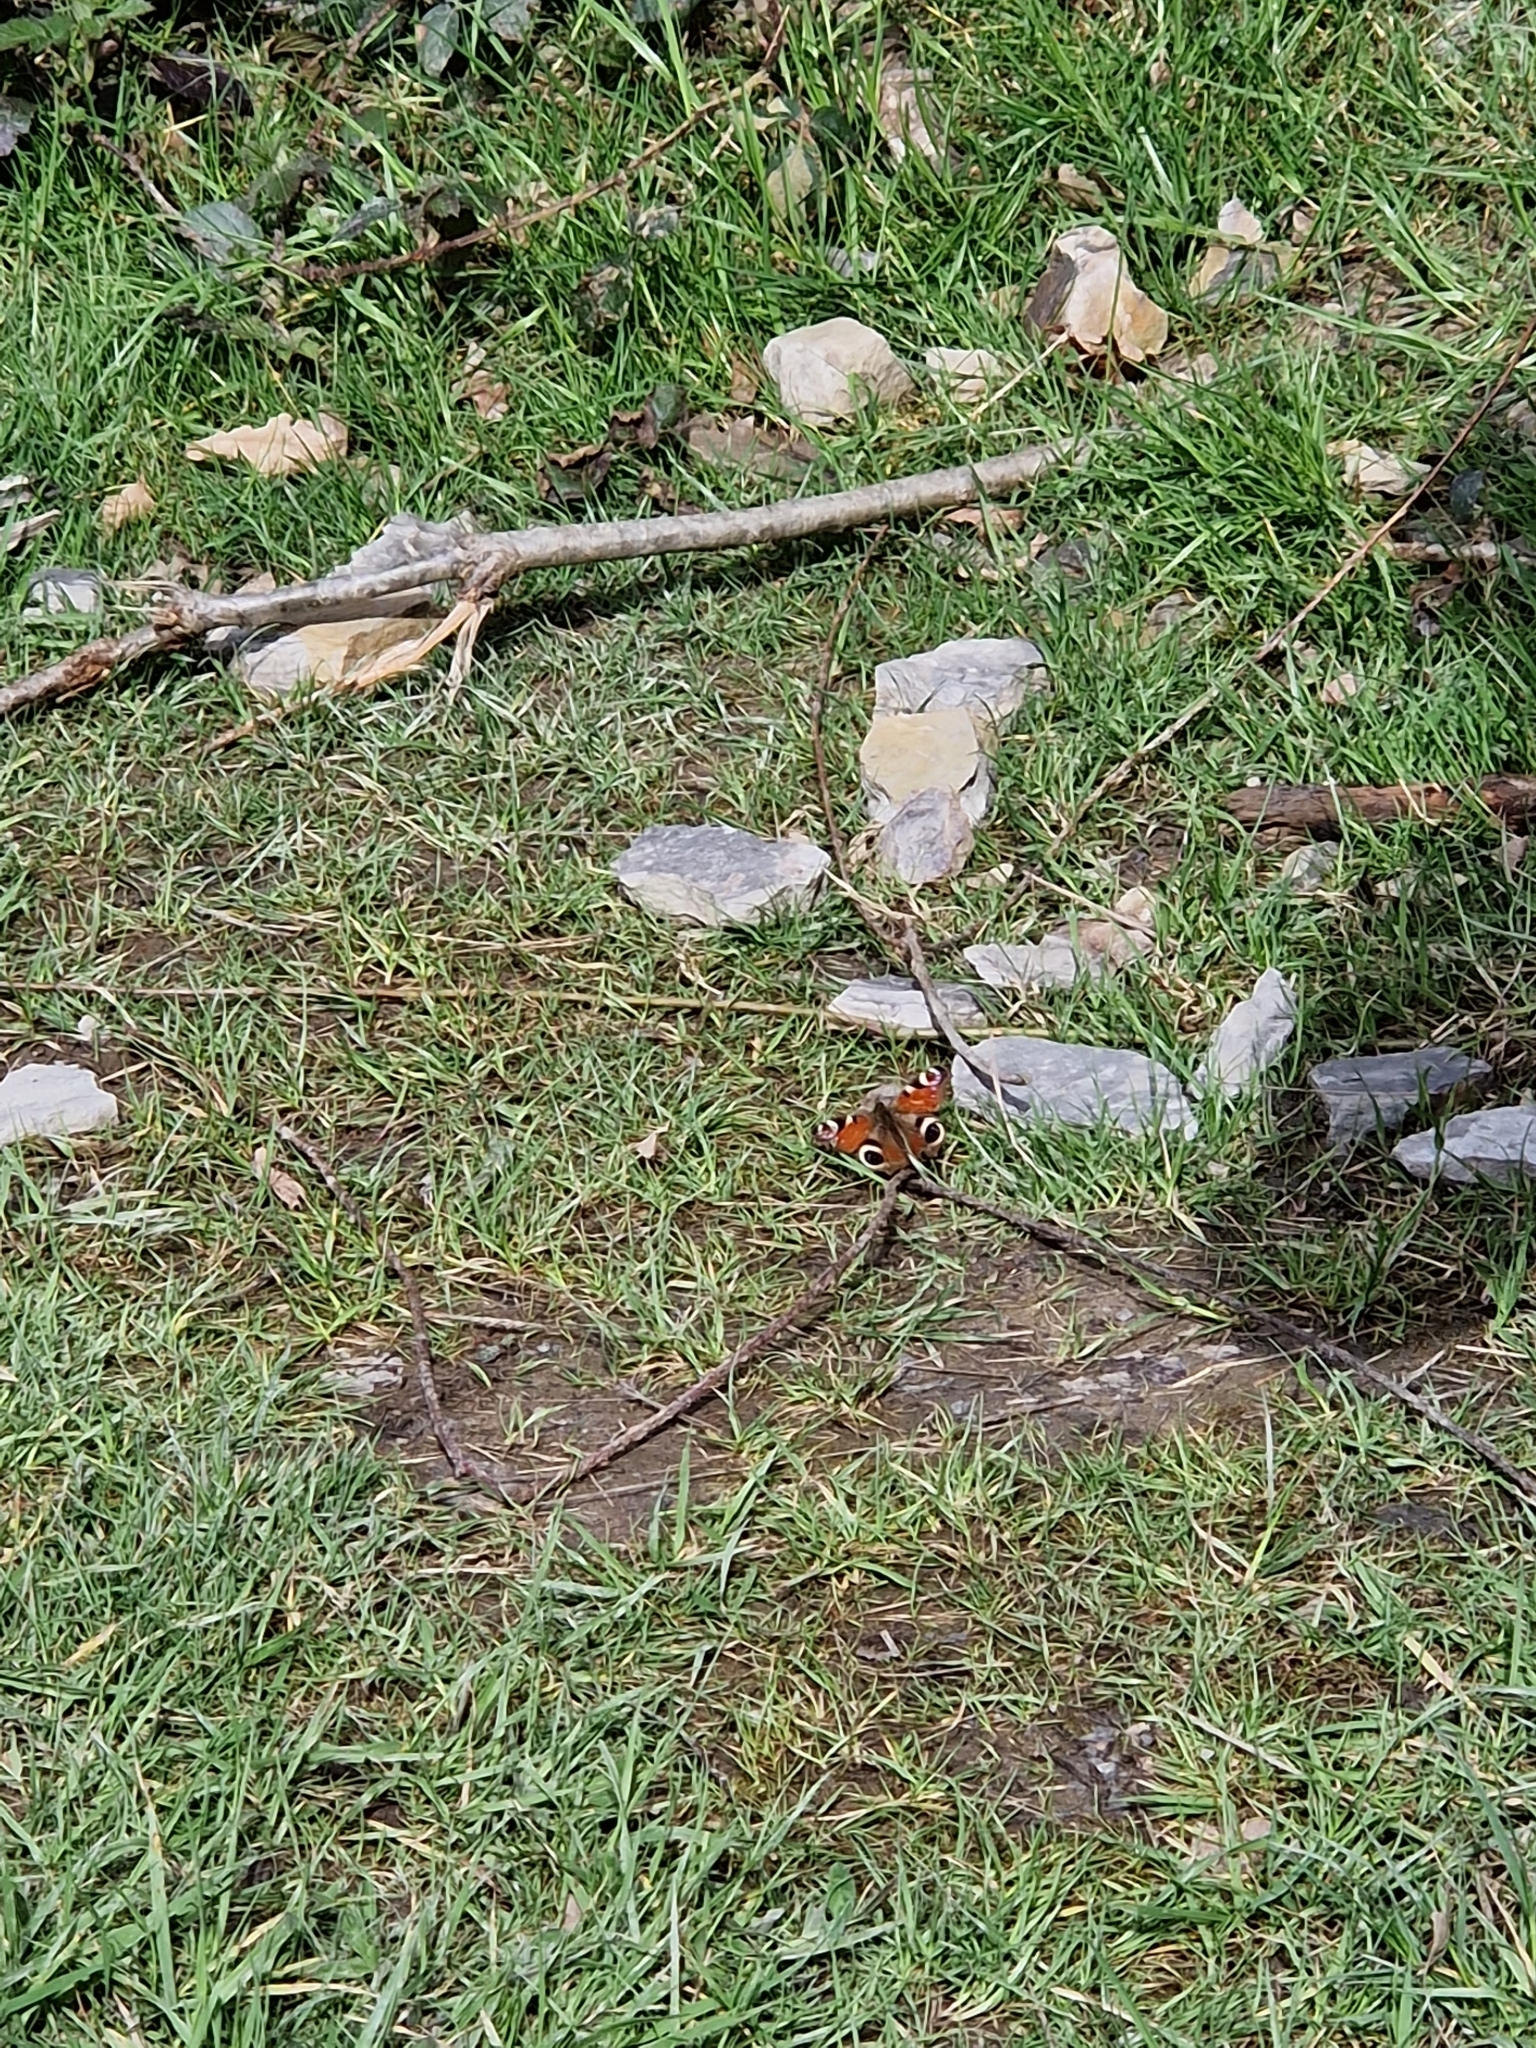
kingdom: Animalia
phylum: Arthropoda
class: Insecta
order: Lepidoptera
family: Nymphalidae
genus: Aglais
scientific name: Aglais io
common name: Peacock
